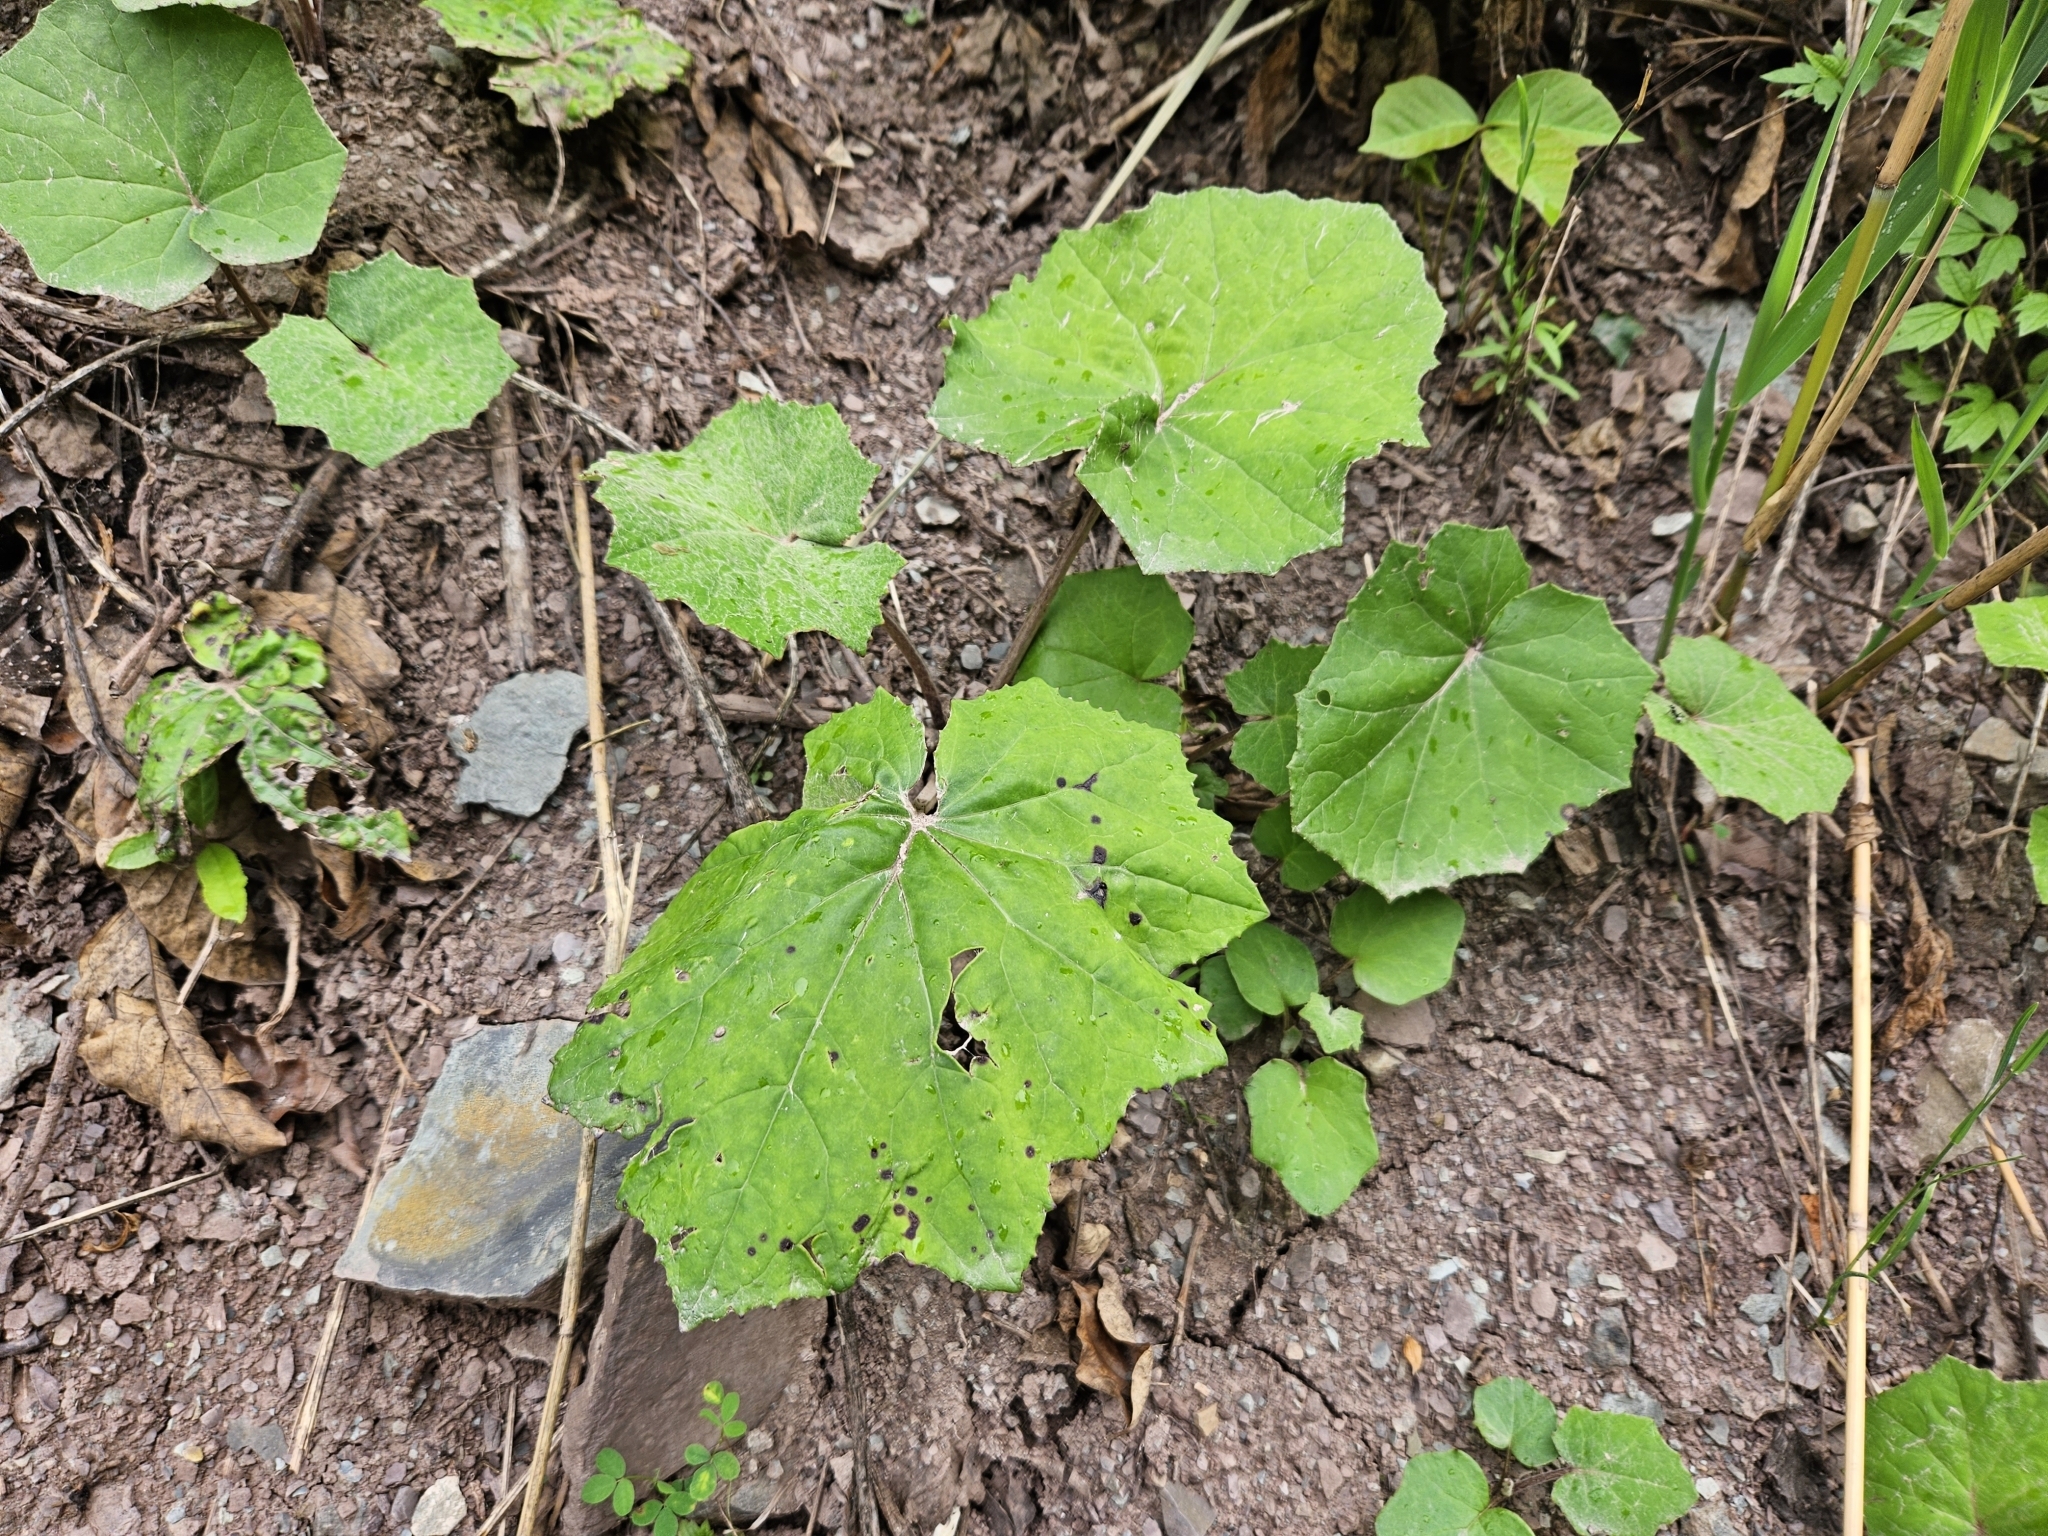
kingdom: Plantae
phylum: Tracheophyta
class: Magnoliopsida
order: Asterales
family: Asteraceae
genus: Tussilago
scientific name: Tussilago farfara
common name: Coltsfoot
